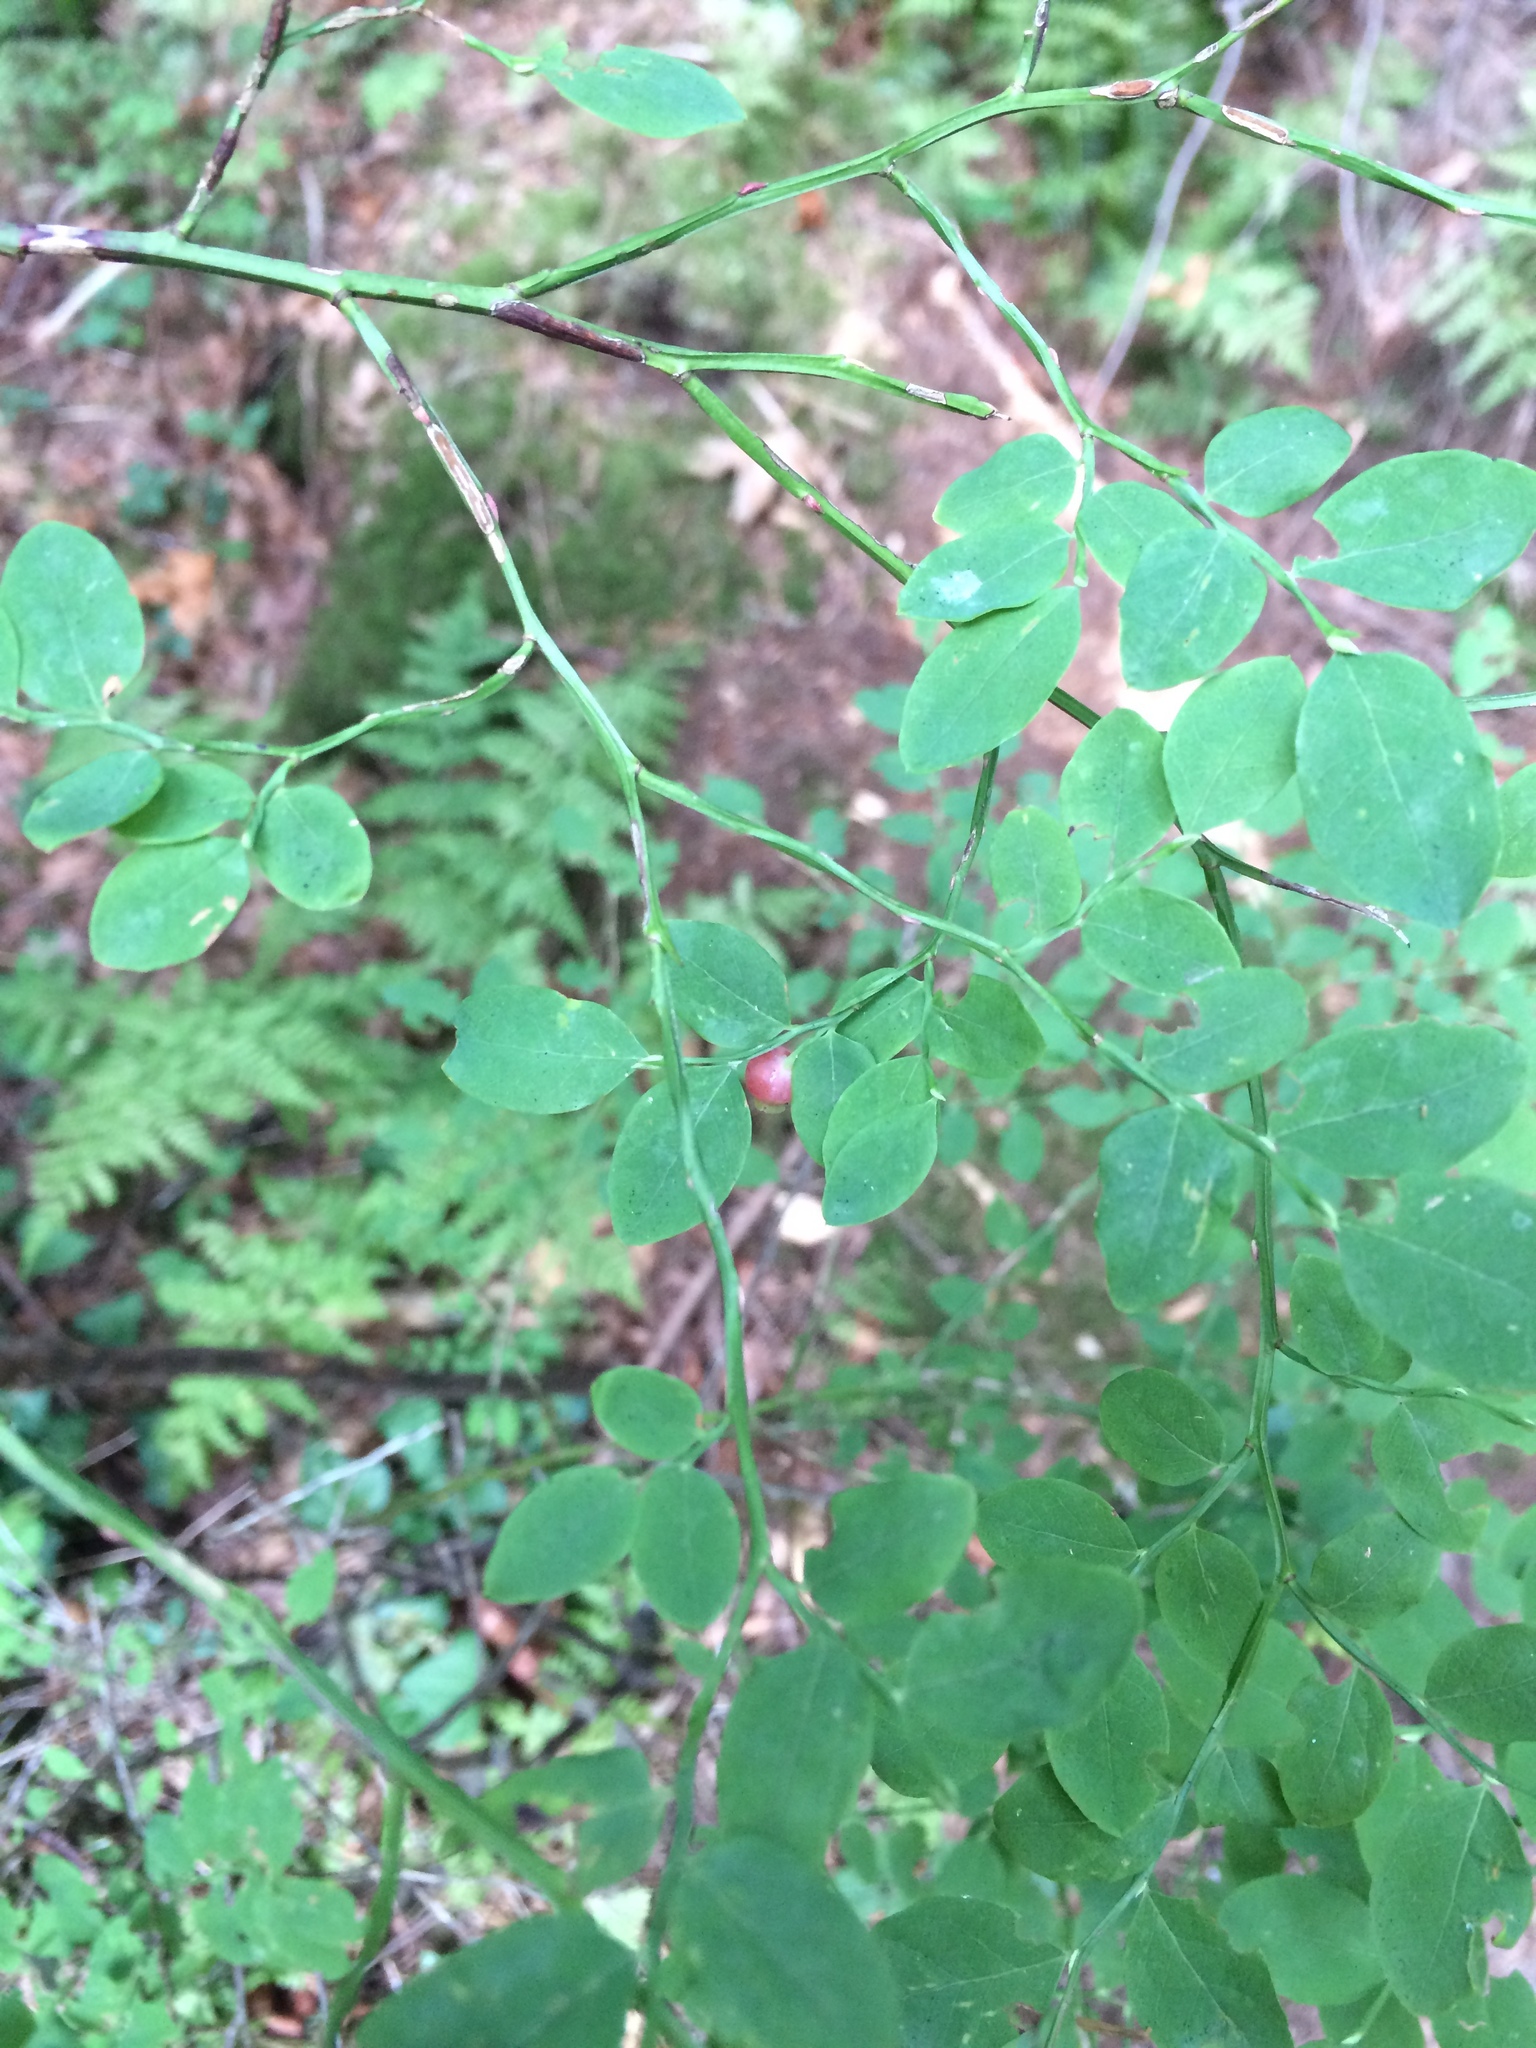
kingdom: Plantae
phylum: Tracheophyta
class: Magnoliopsida
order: Ericales
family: Ericaceae
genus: Vaccinium
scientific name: Vaccinium parvifolium
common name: Red-huckleberry
